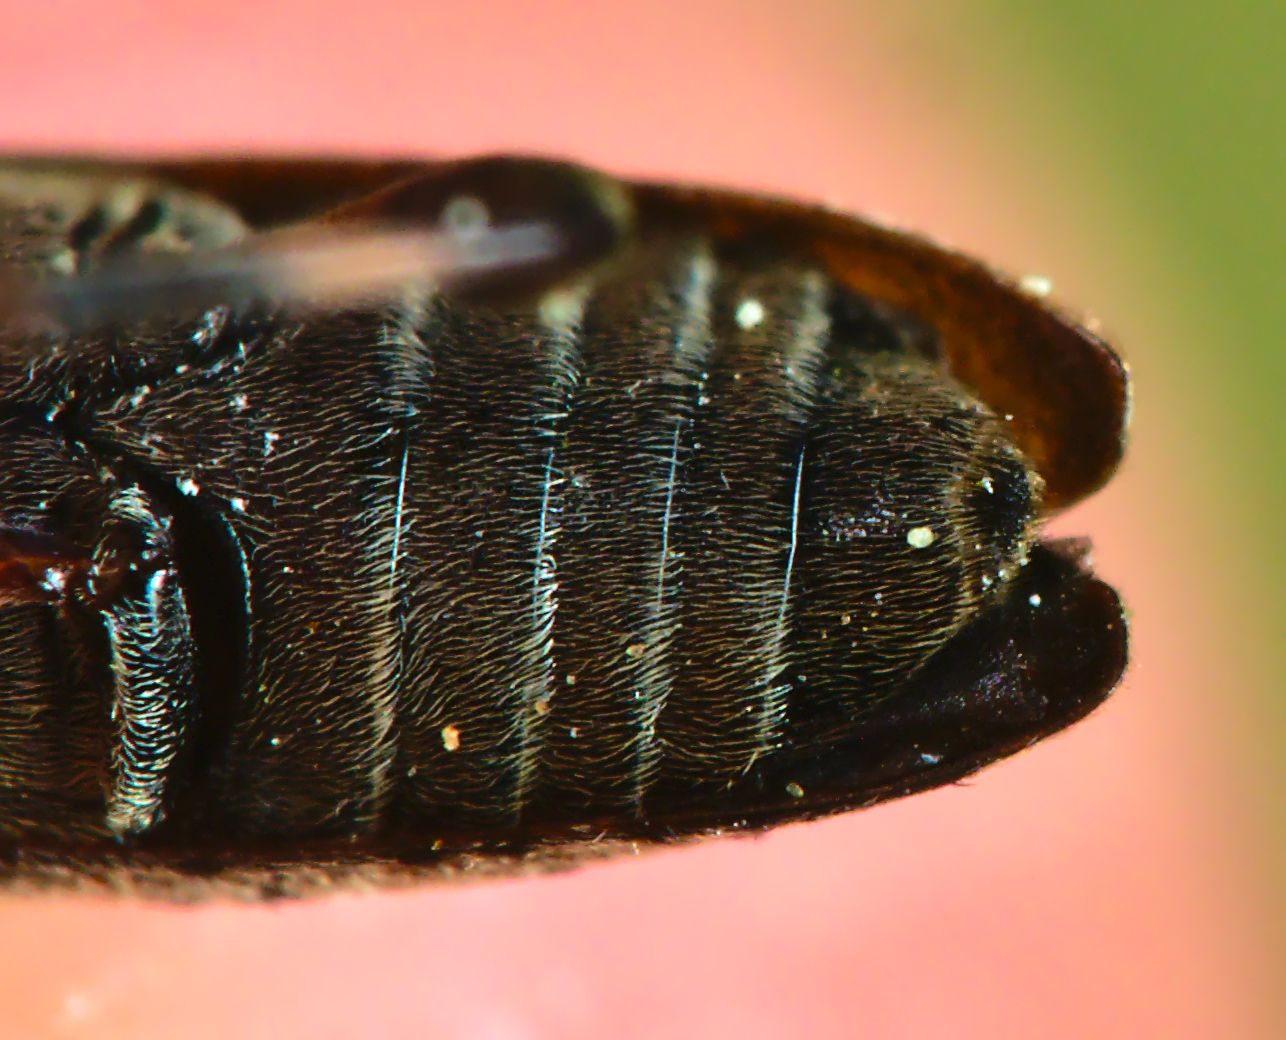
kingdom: Animalia
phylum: Arthropoda
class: Insecta
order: Coleoptera
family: Cerambycidae
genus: Leiopus
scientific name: Leiopus femoratus
